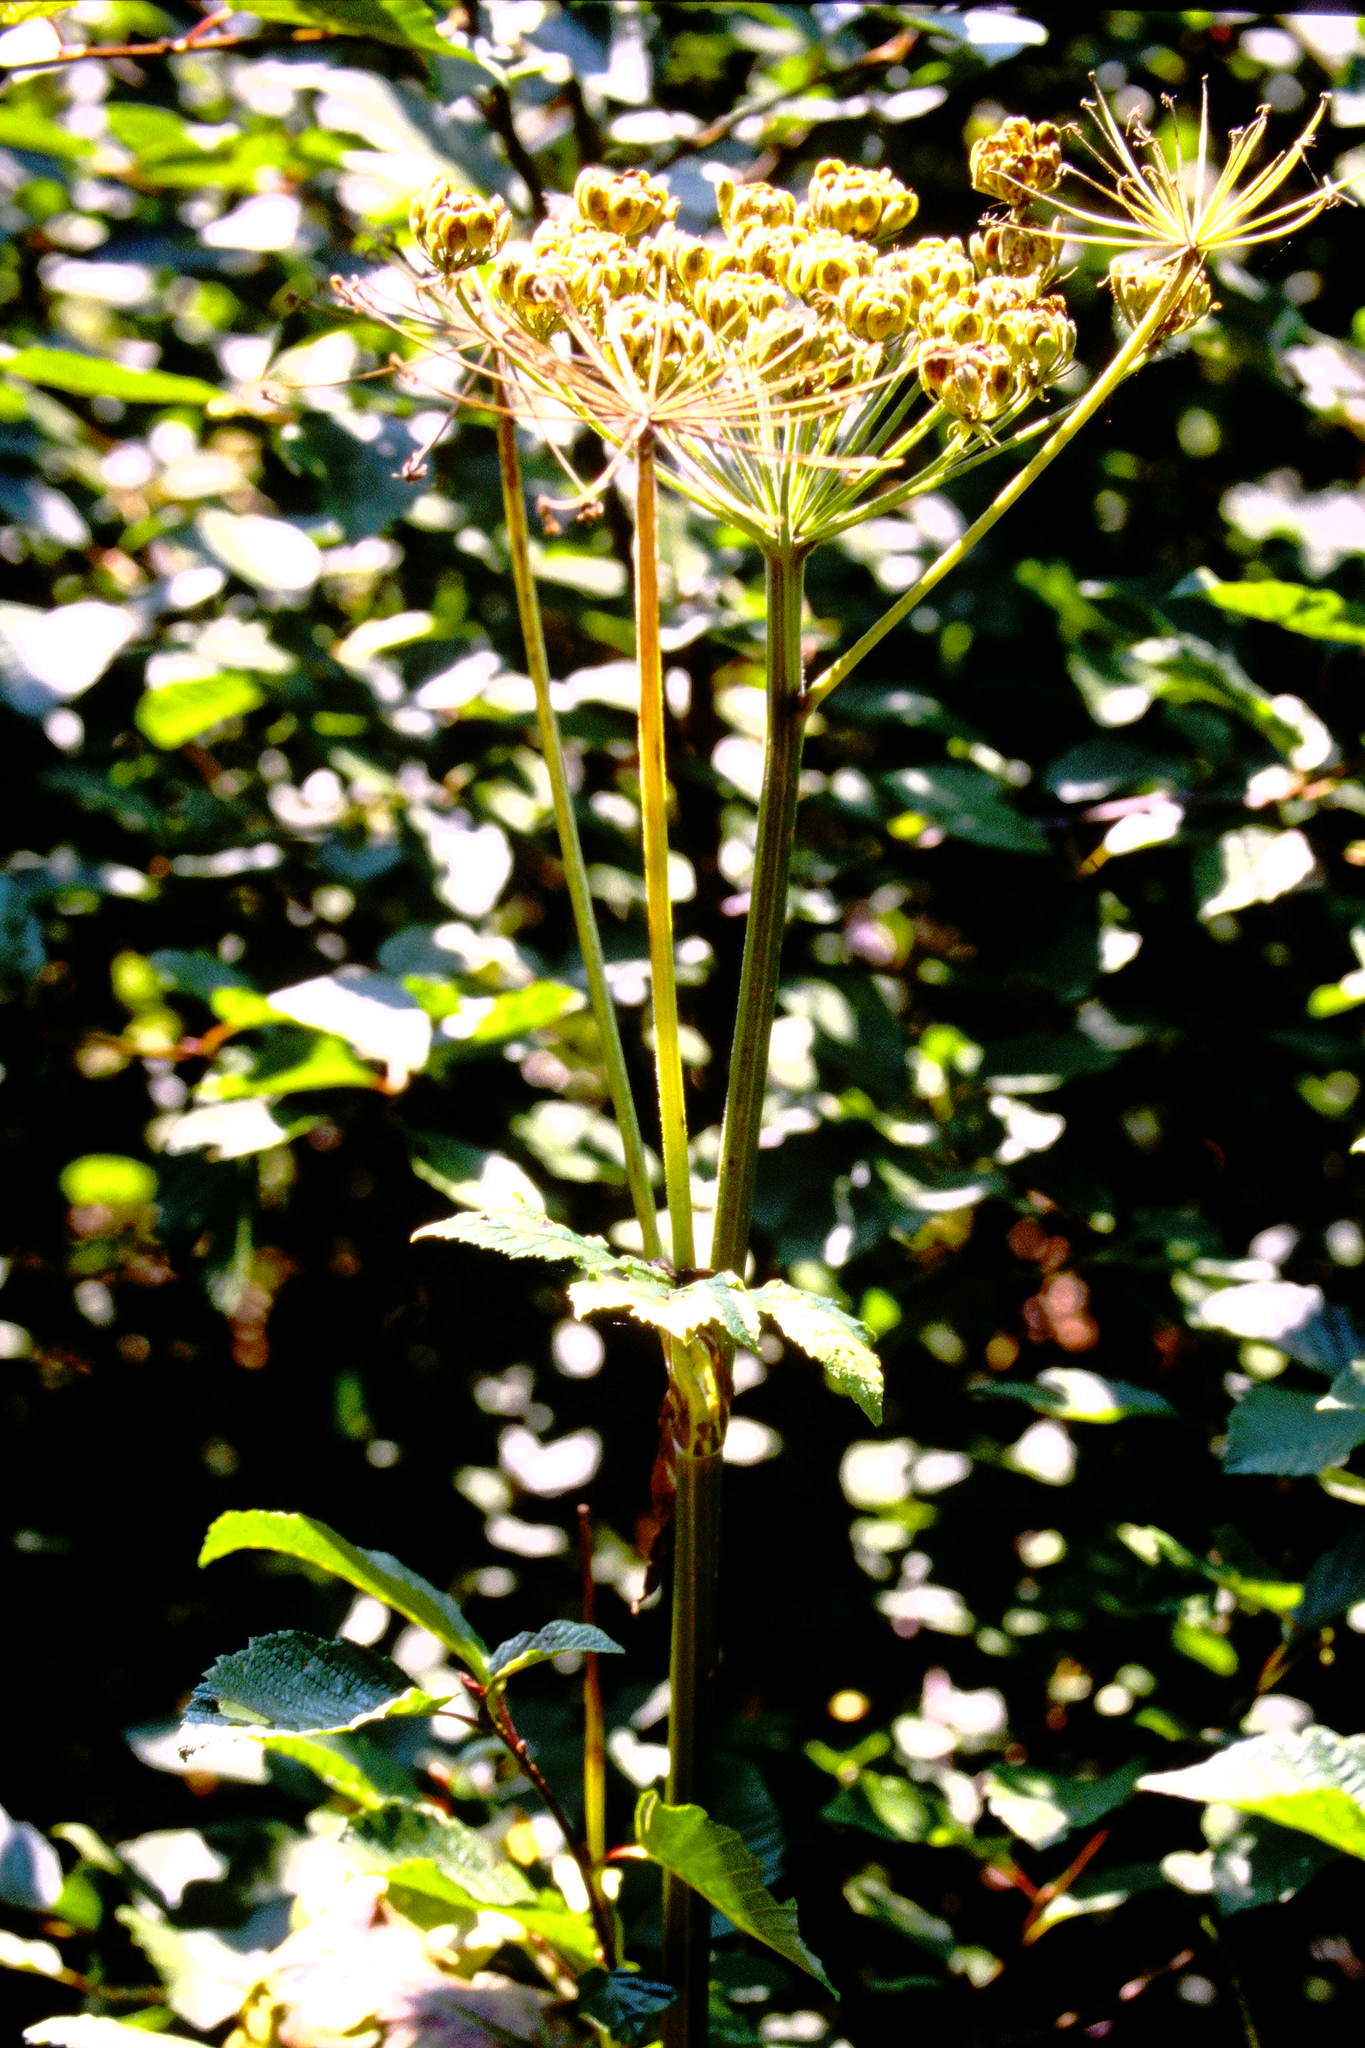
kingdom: Plantae
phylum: Tracheophyta
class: Magnoliopsida
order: Apiales
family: Apiaceae
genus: Heracleum
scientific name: Heracleum maximum
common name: American cow parsnip
